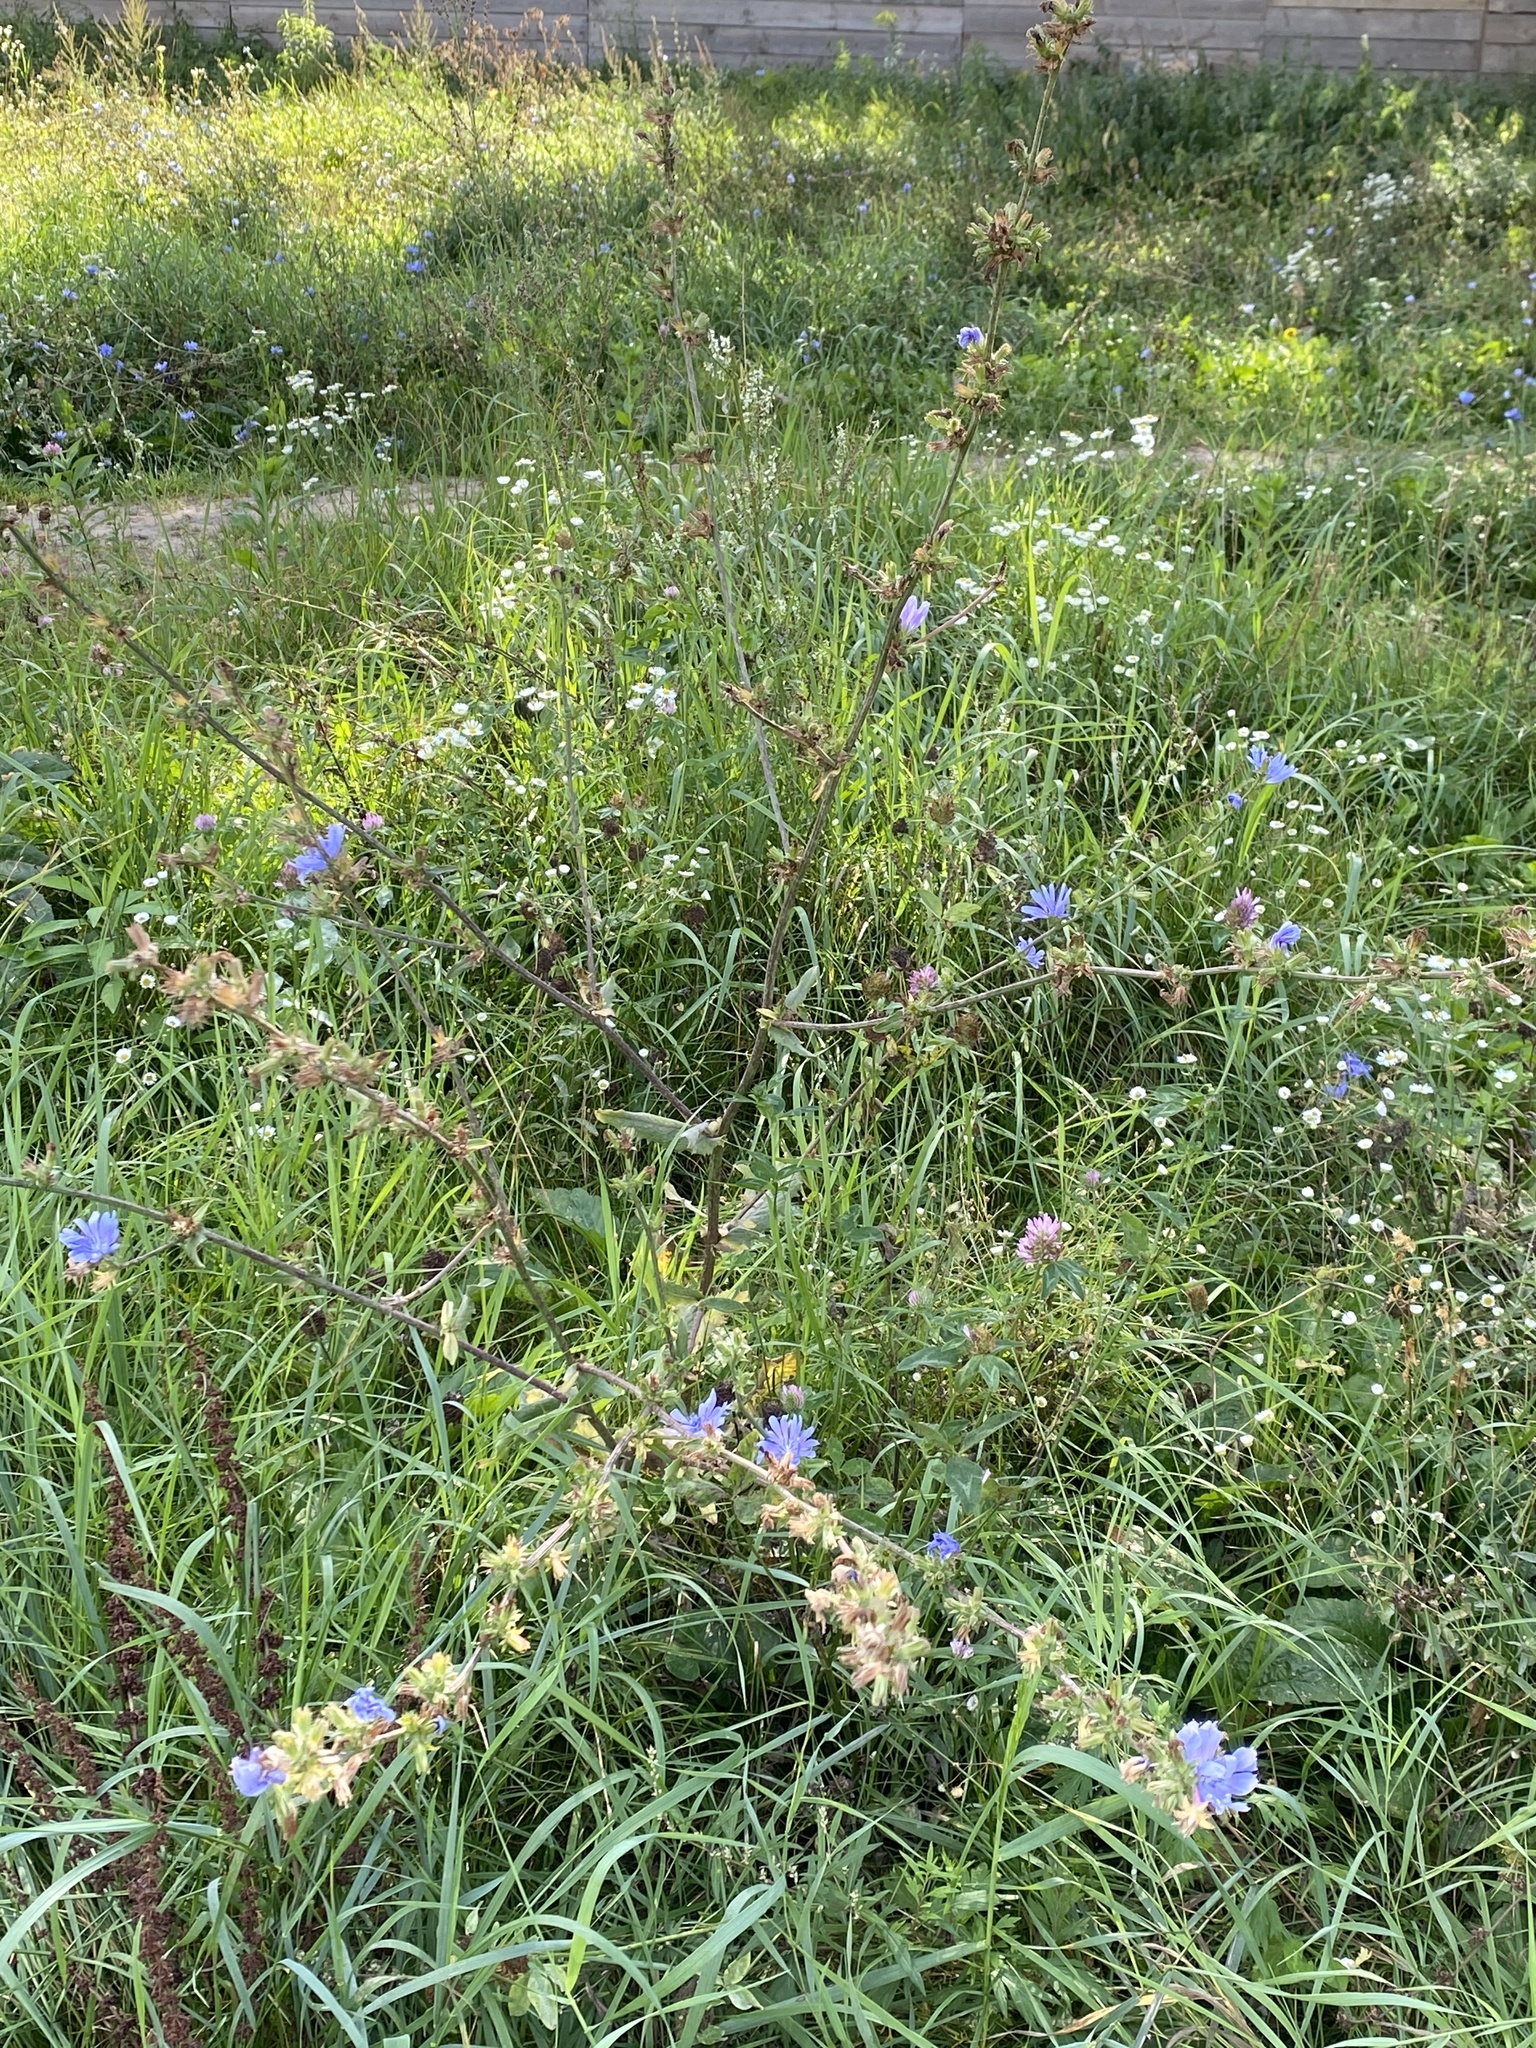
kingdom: Plantae
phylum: Tracheophyta
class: Magnoliopsida
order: Asterales
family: Asteraceae
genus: Cichorium
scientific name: Cichorium intybus
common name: Chicory
